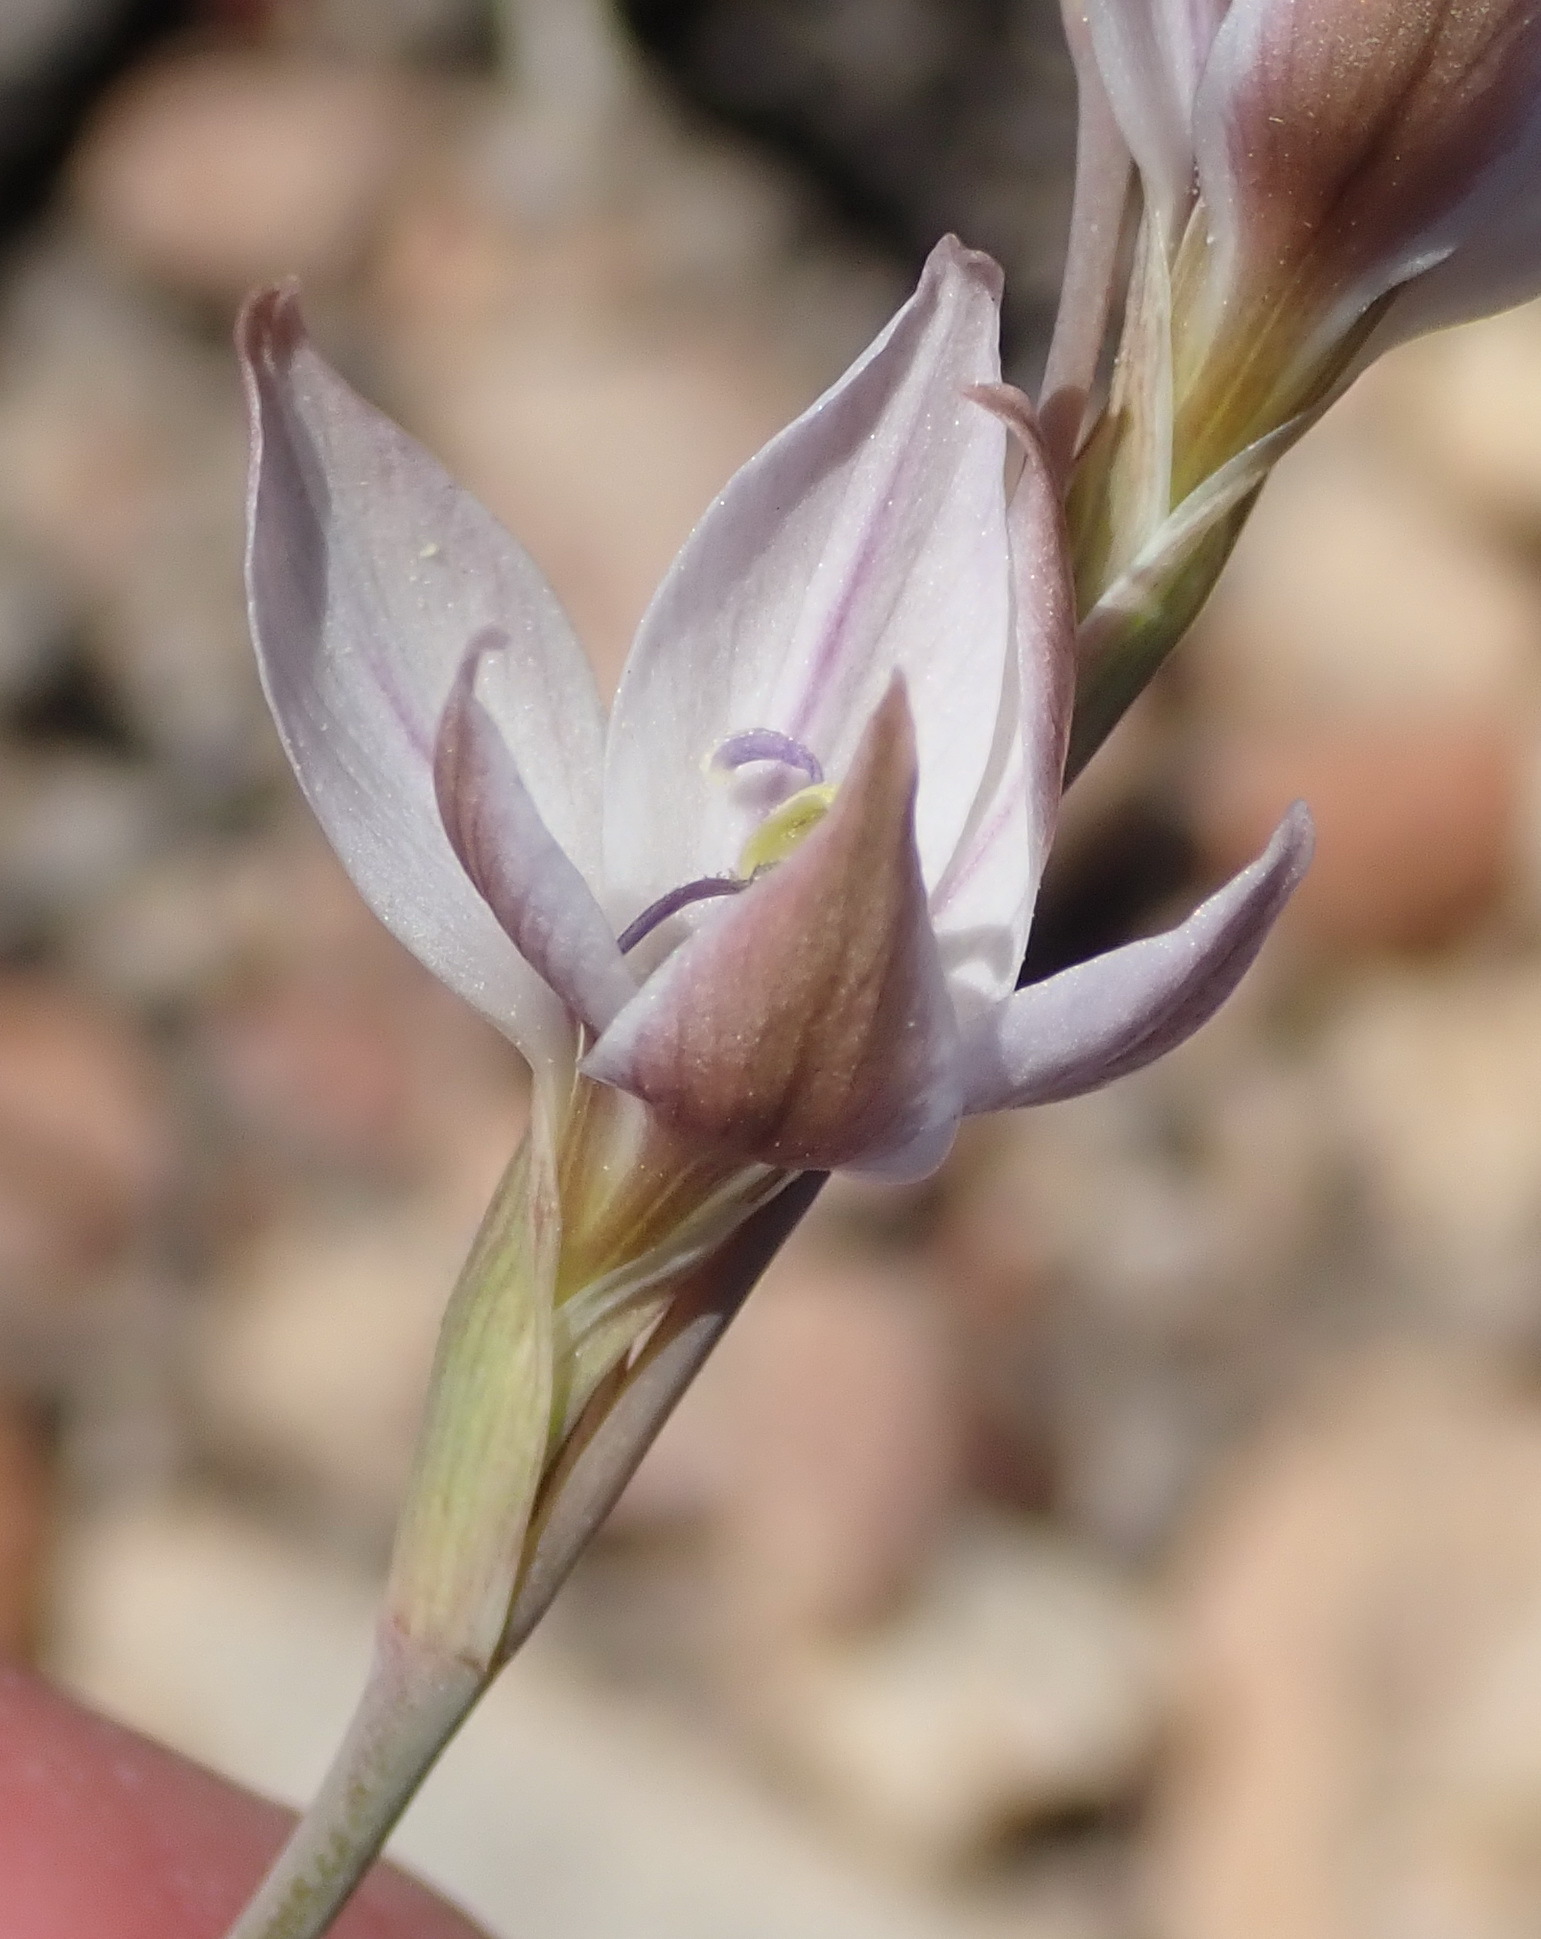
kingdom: Plantae
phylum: Tracheophyta
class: Liliopsida
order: Asparagales
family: Iridaceae
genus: Gladiolus
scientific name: Gladiolus stellatus
